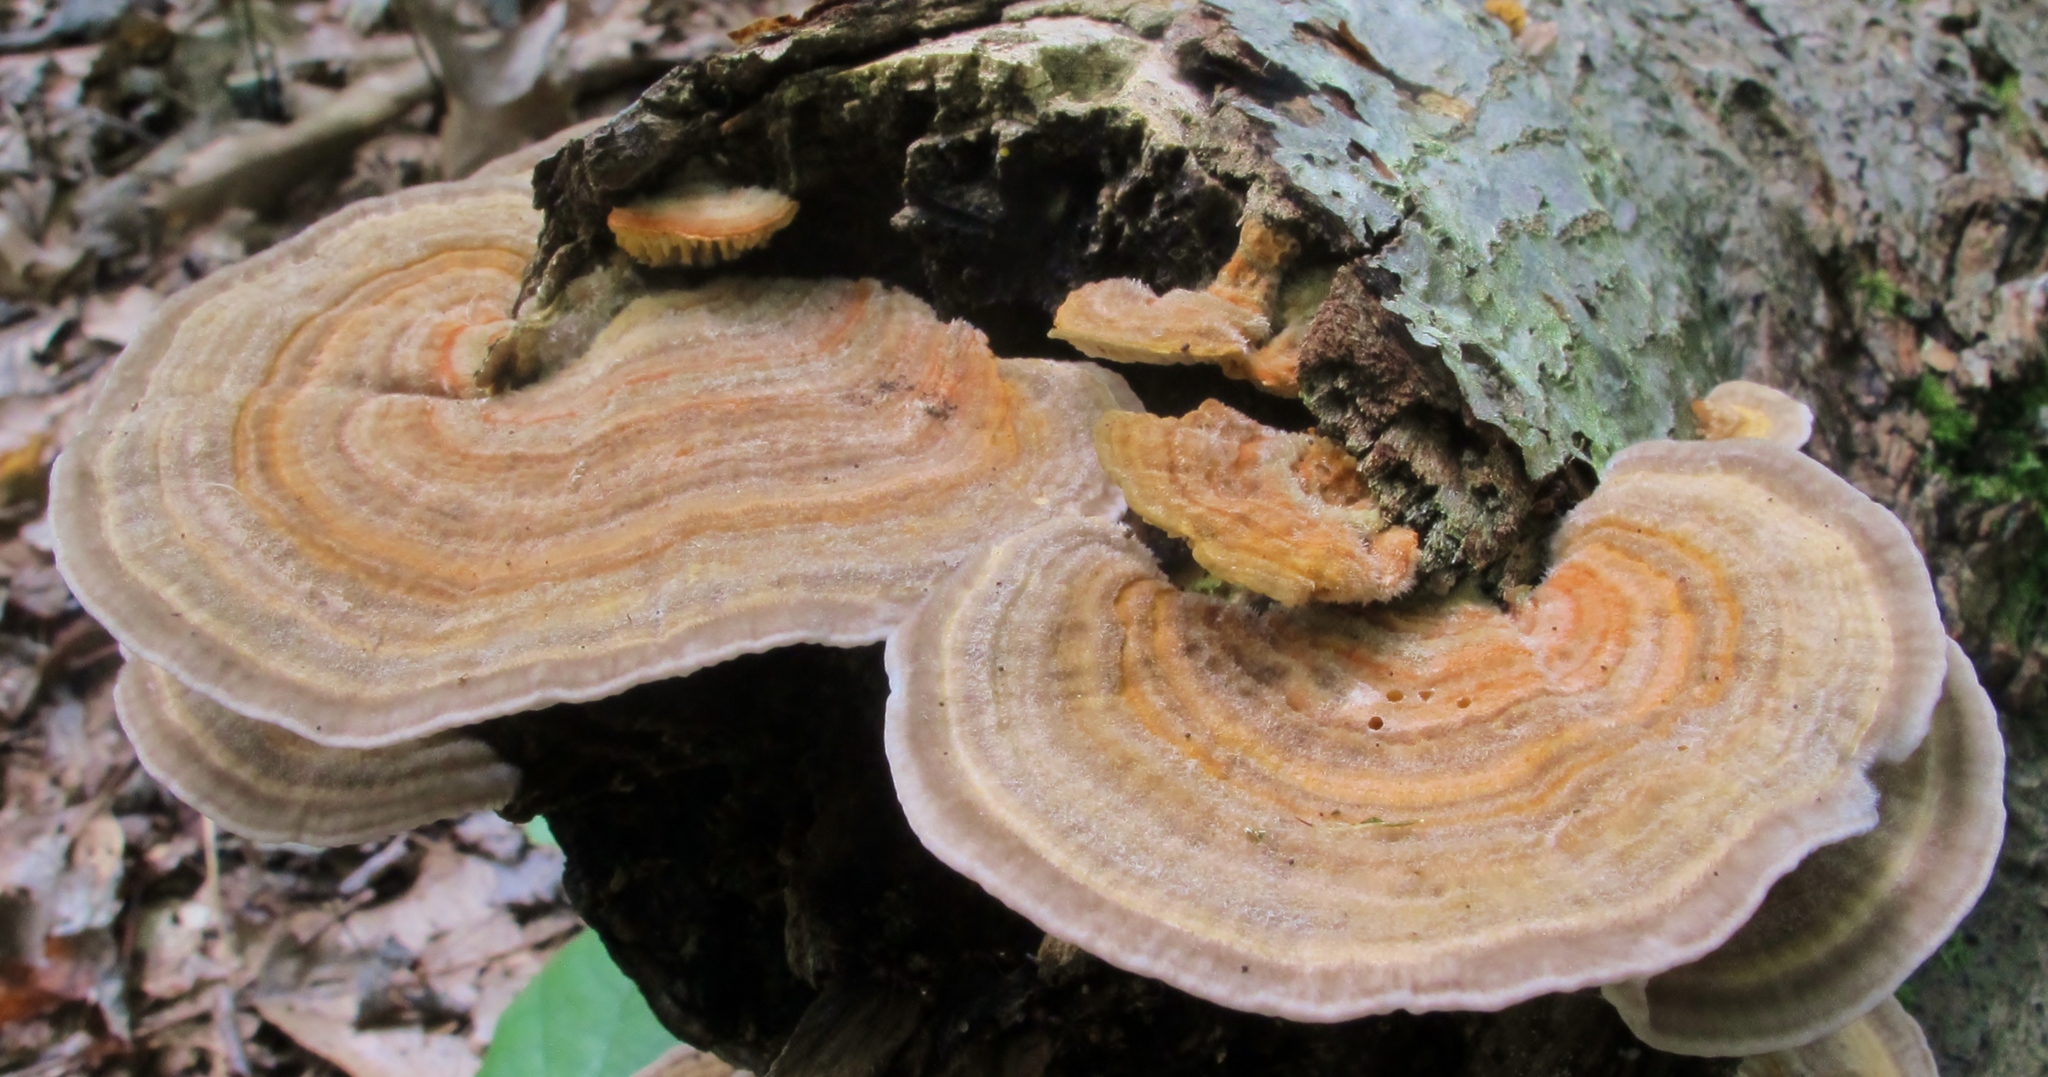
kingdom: Fungi
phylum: Basidiomycota
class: Agaricomycetes
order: Polyporales
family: Polyporaceae
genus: Lenzites
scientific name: Lenzites betulinus
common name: Birch mazegill
